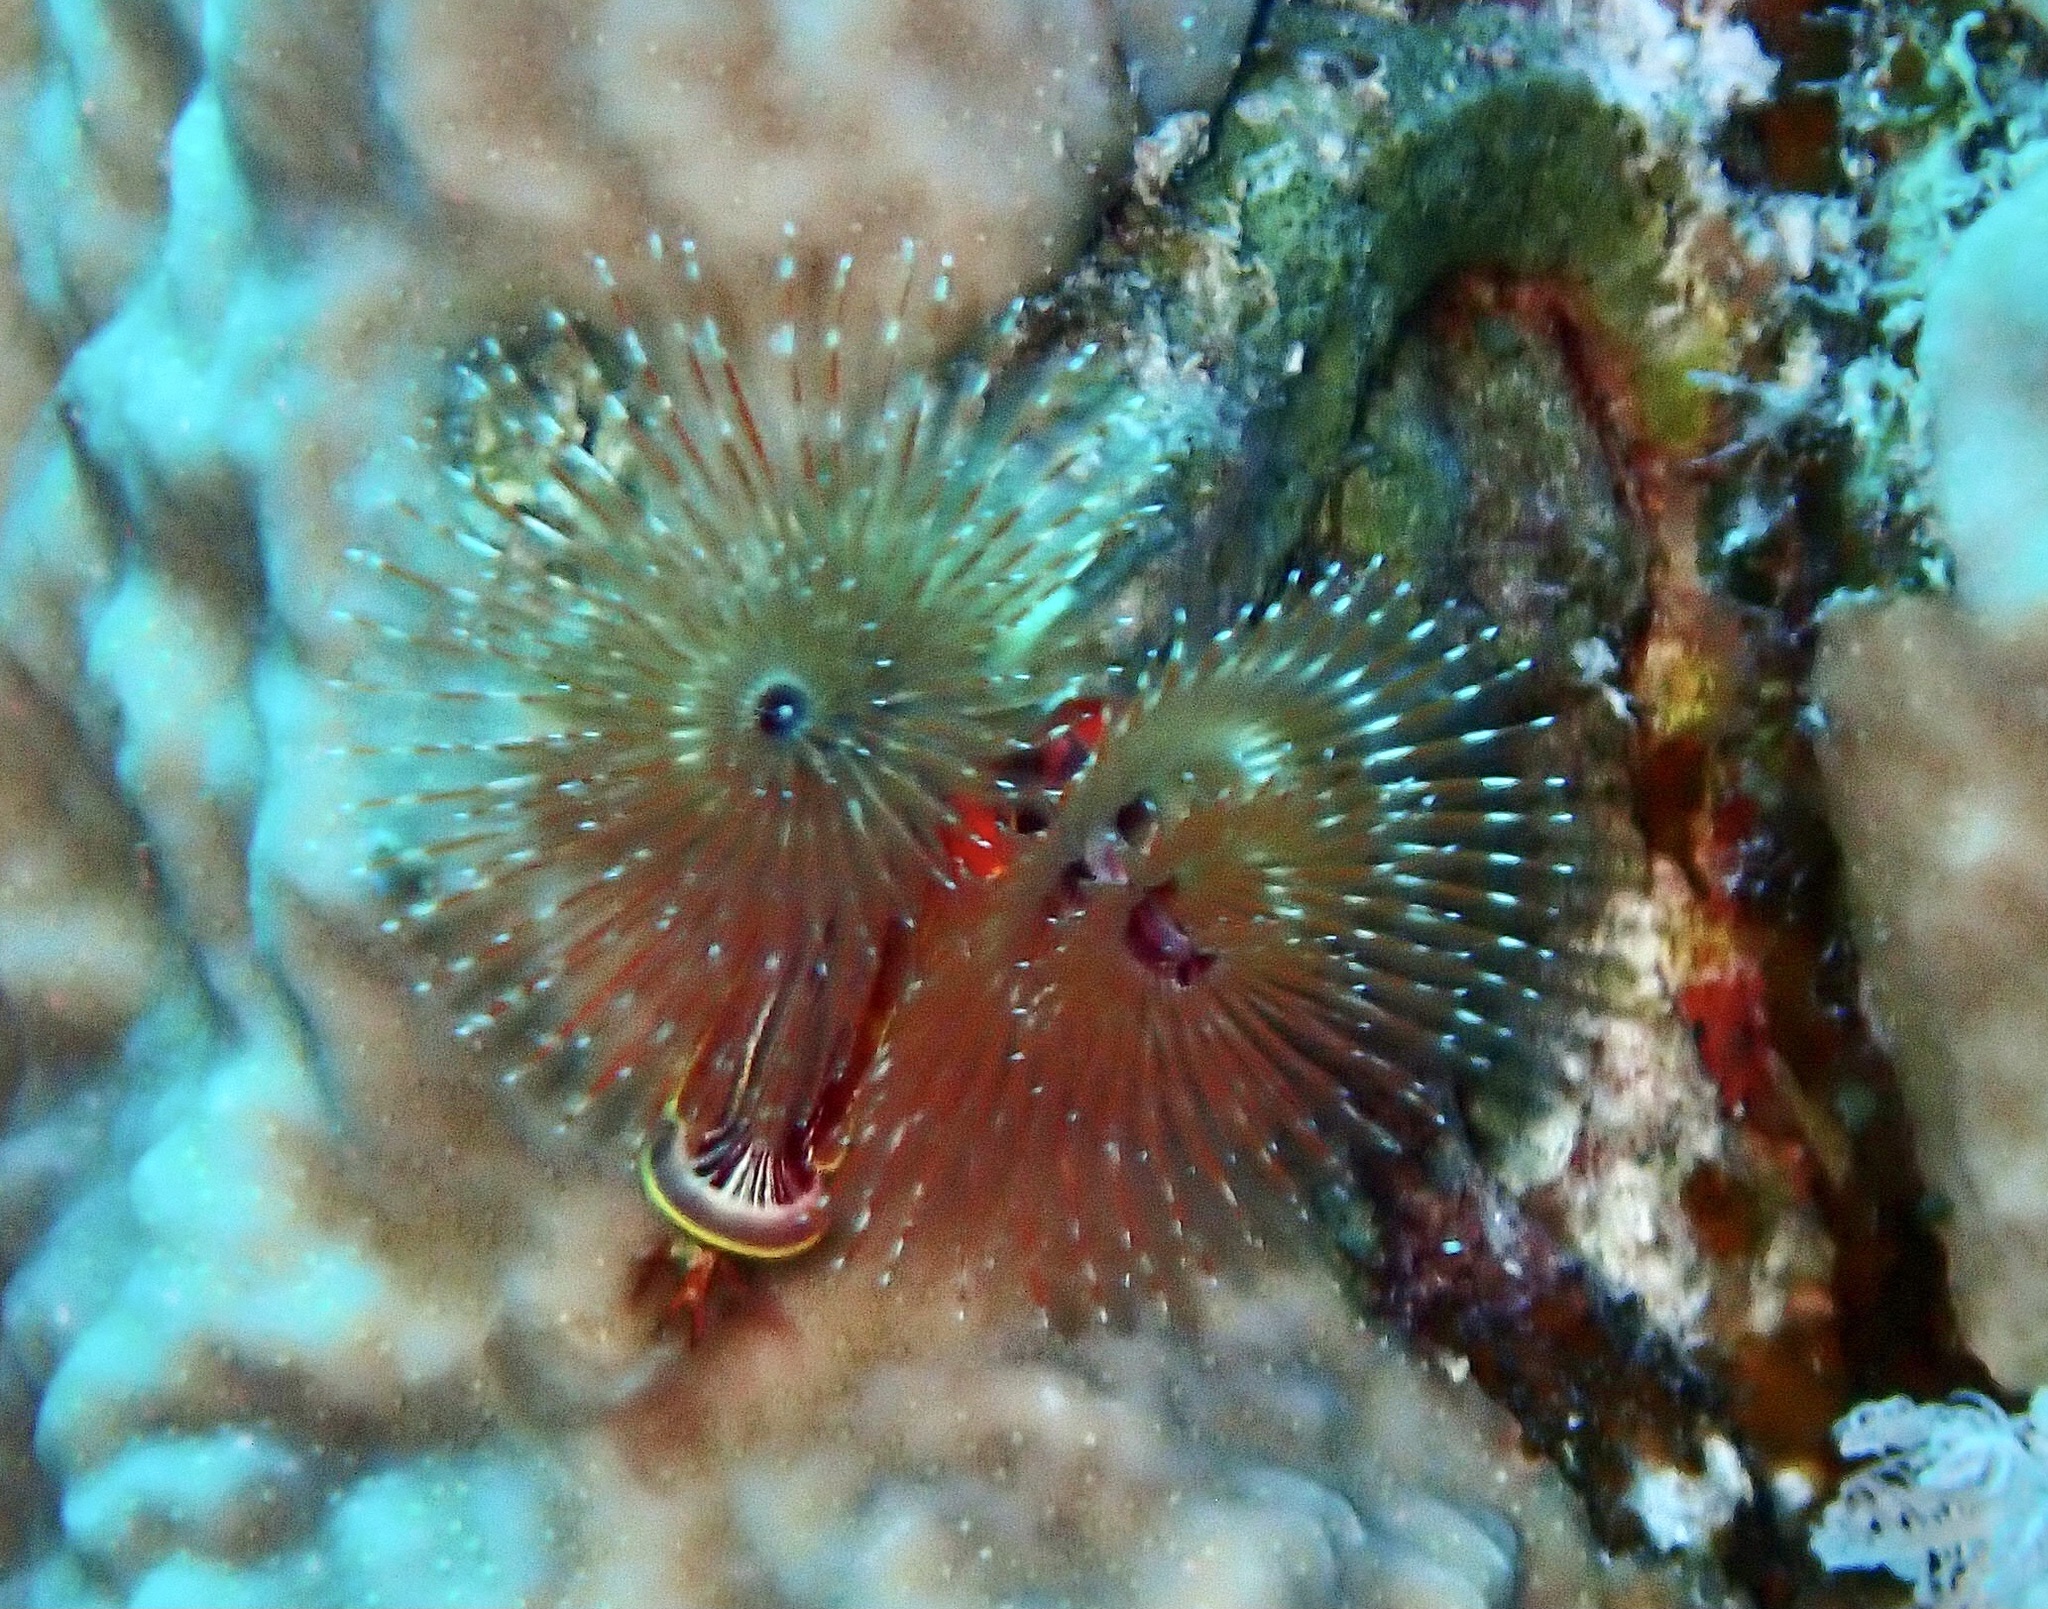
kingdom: Animalia
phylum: Annelida
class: Polychaeta
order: Sabellida
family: Serpulidae
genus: Spirobranchus
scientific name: Spirobranchus
